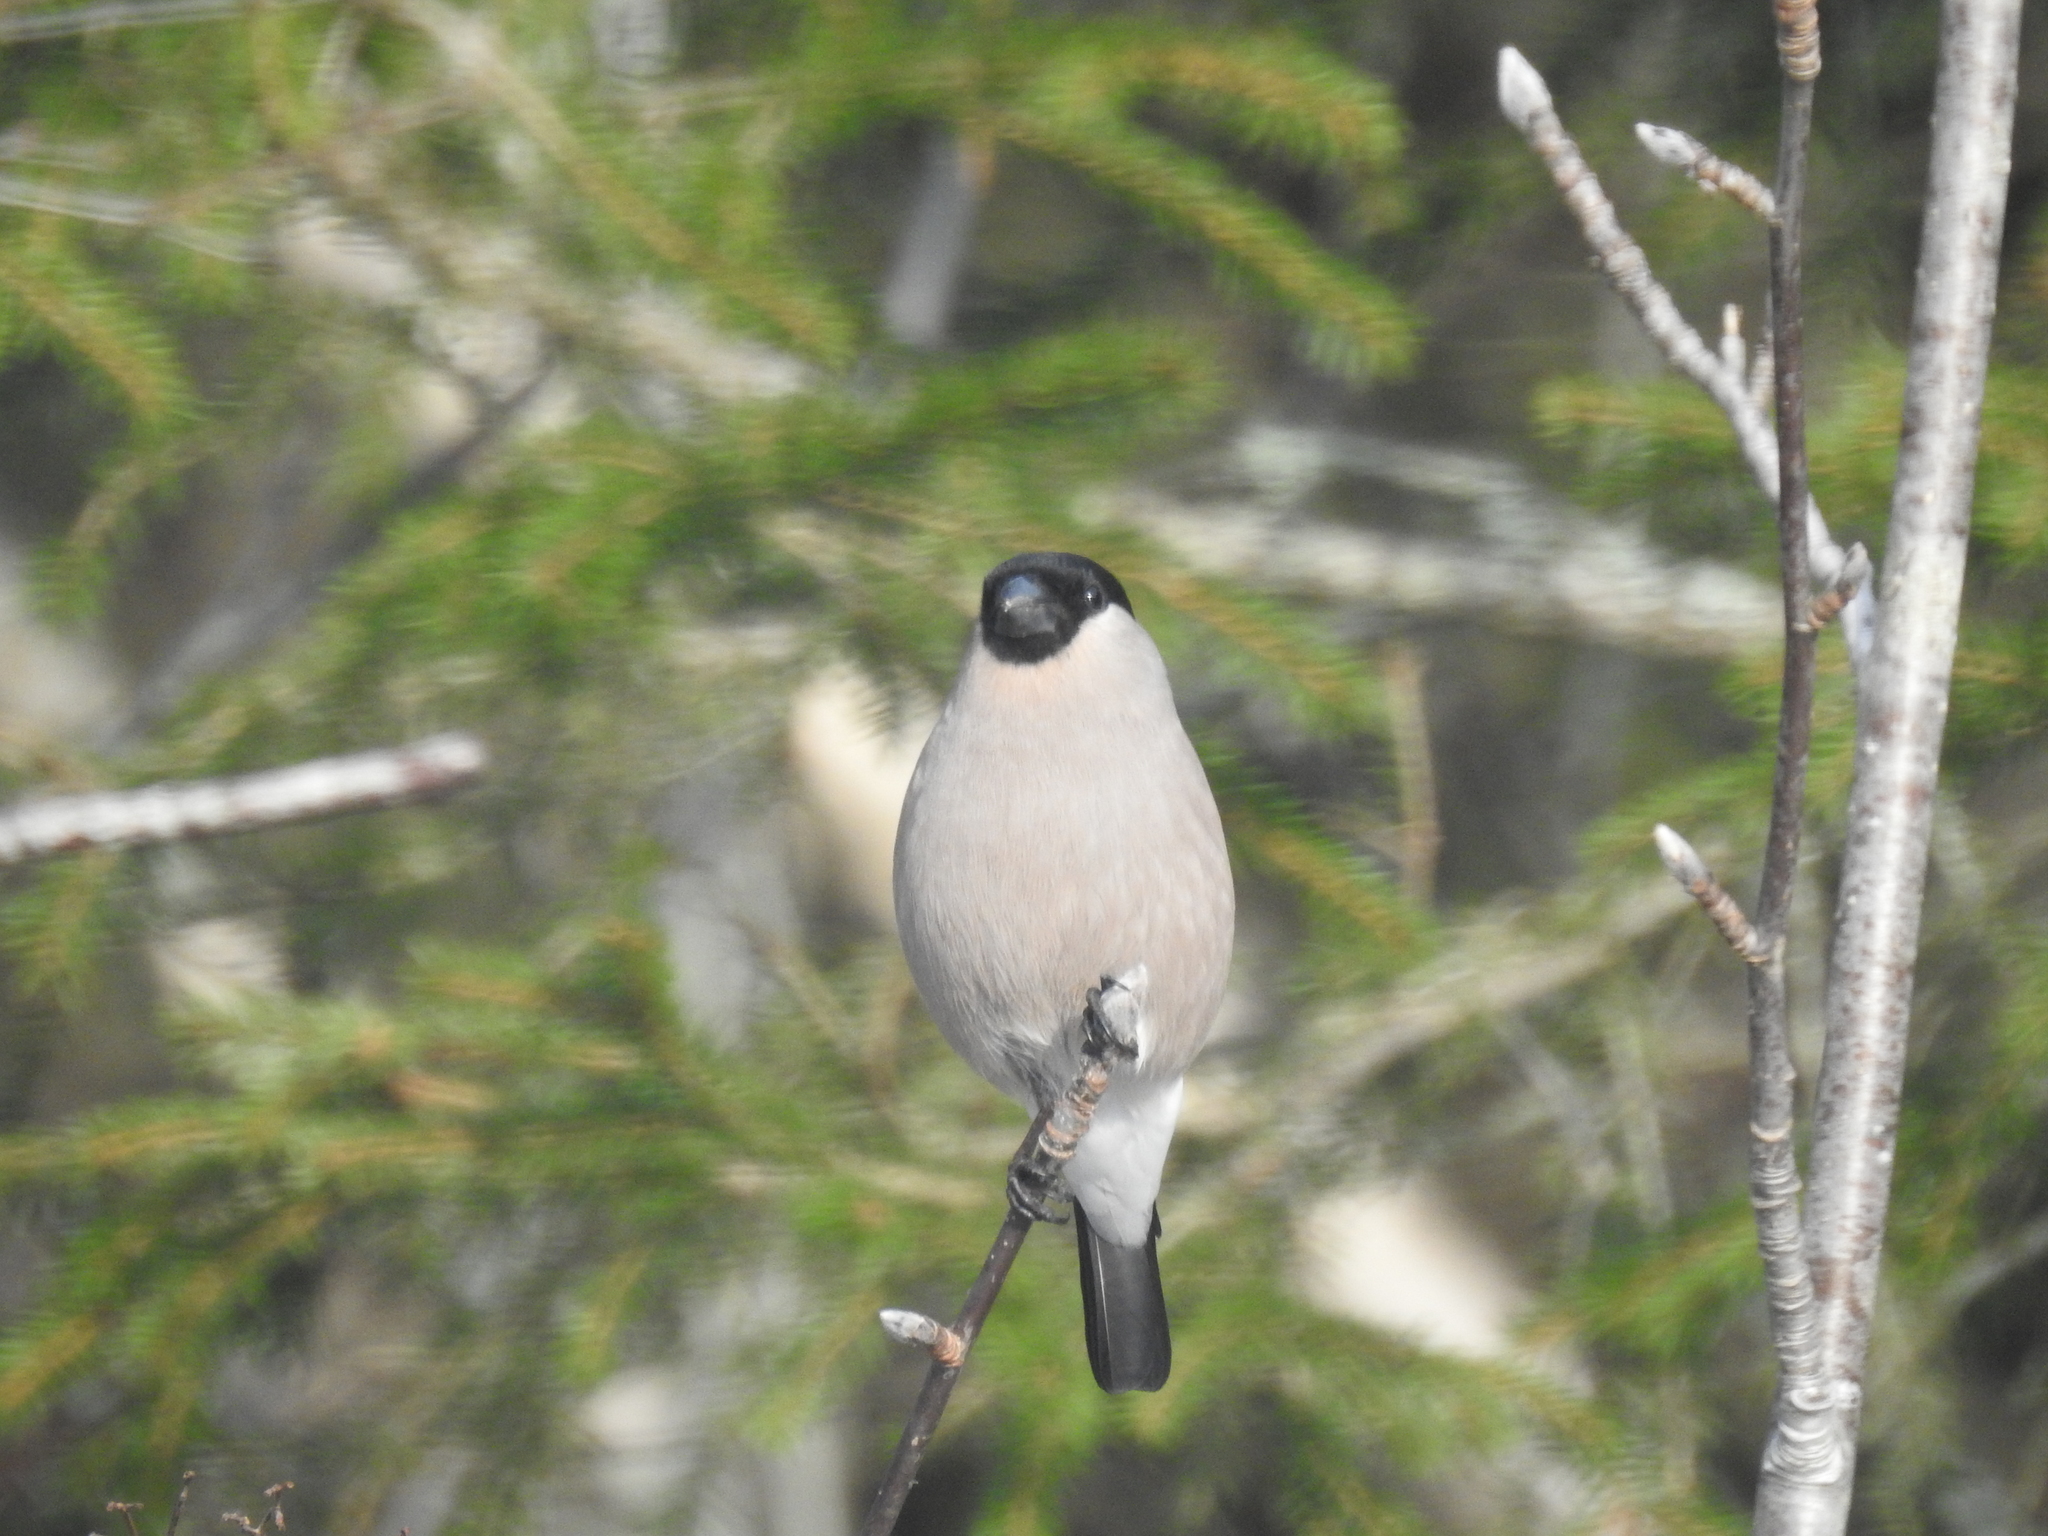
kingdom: Animalia
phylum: Chordata
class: Aves
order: Passeriformes
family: Fringillidae
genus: Pyrrhula
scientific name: Pyrrhula pyrrhula
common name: Eurasian bullfinch
